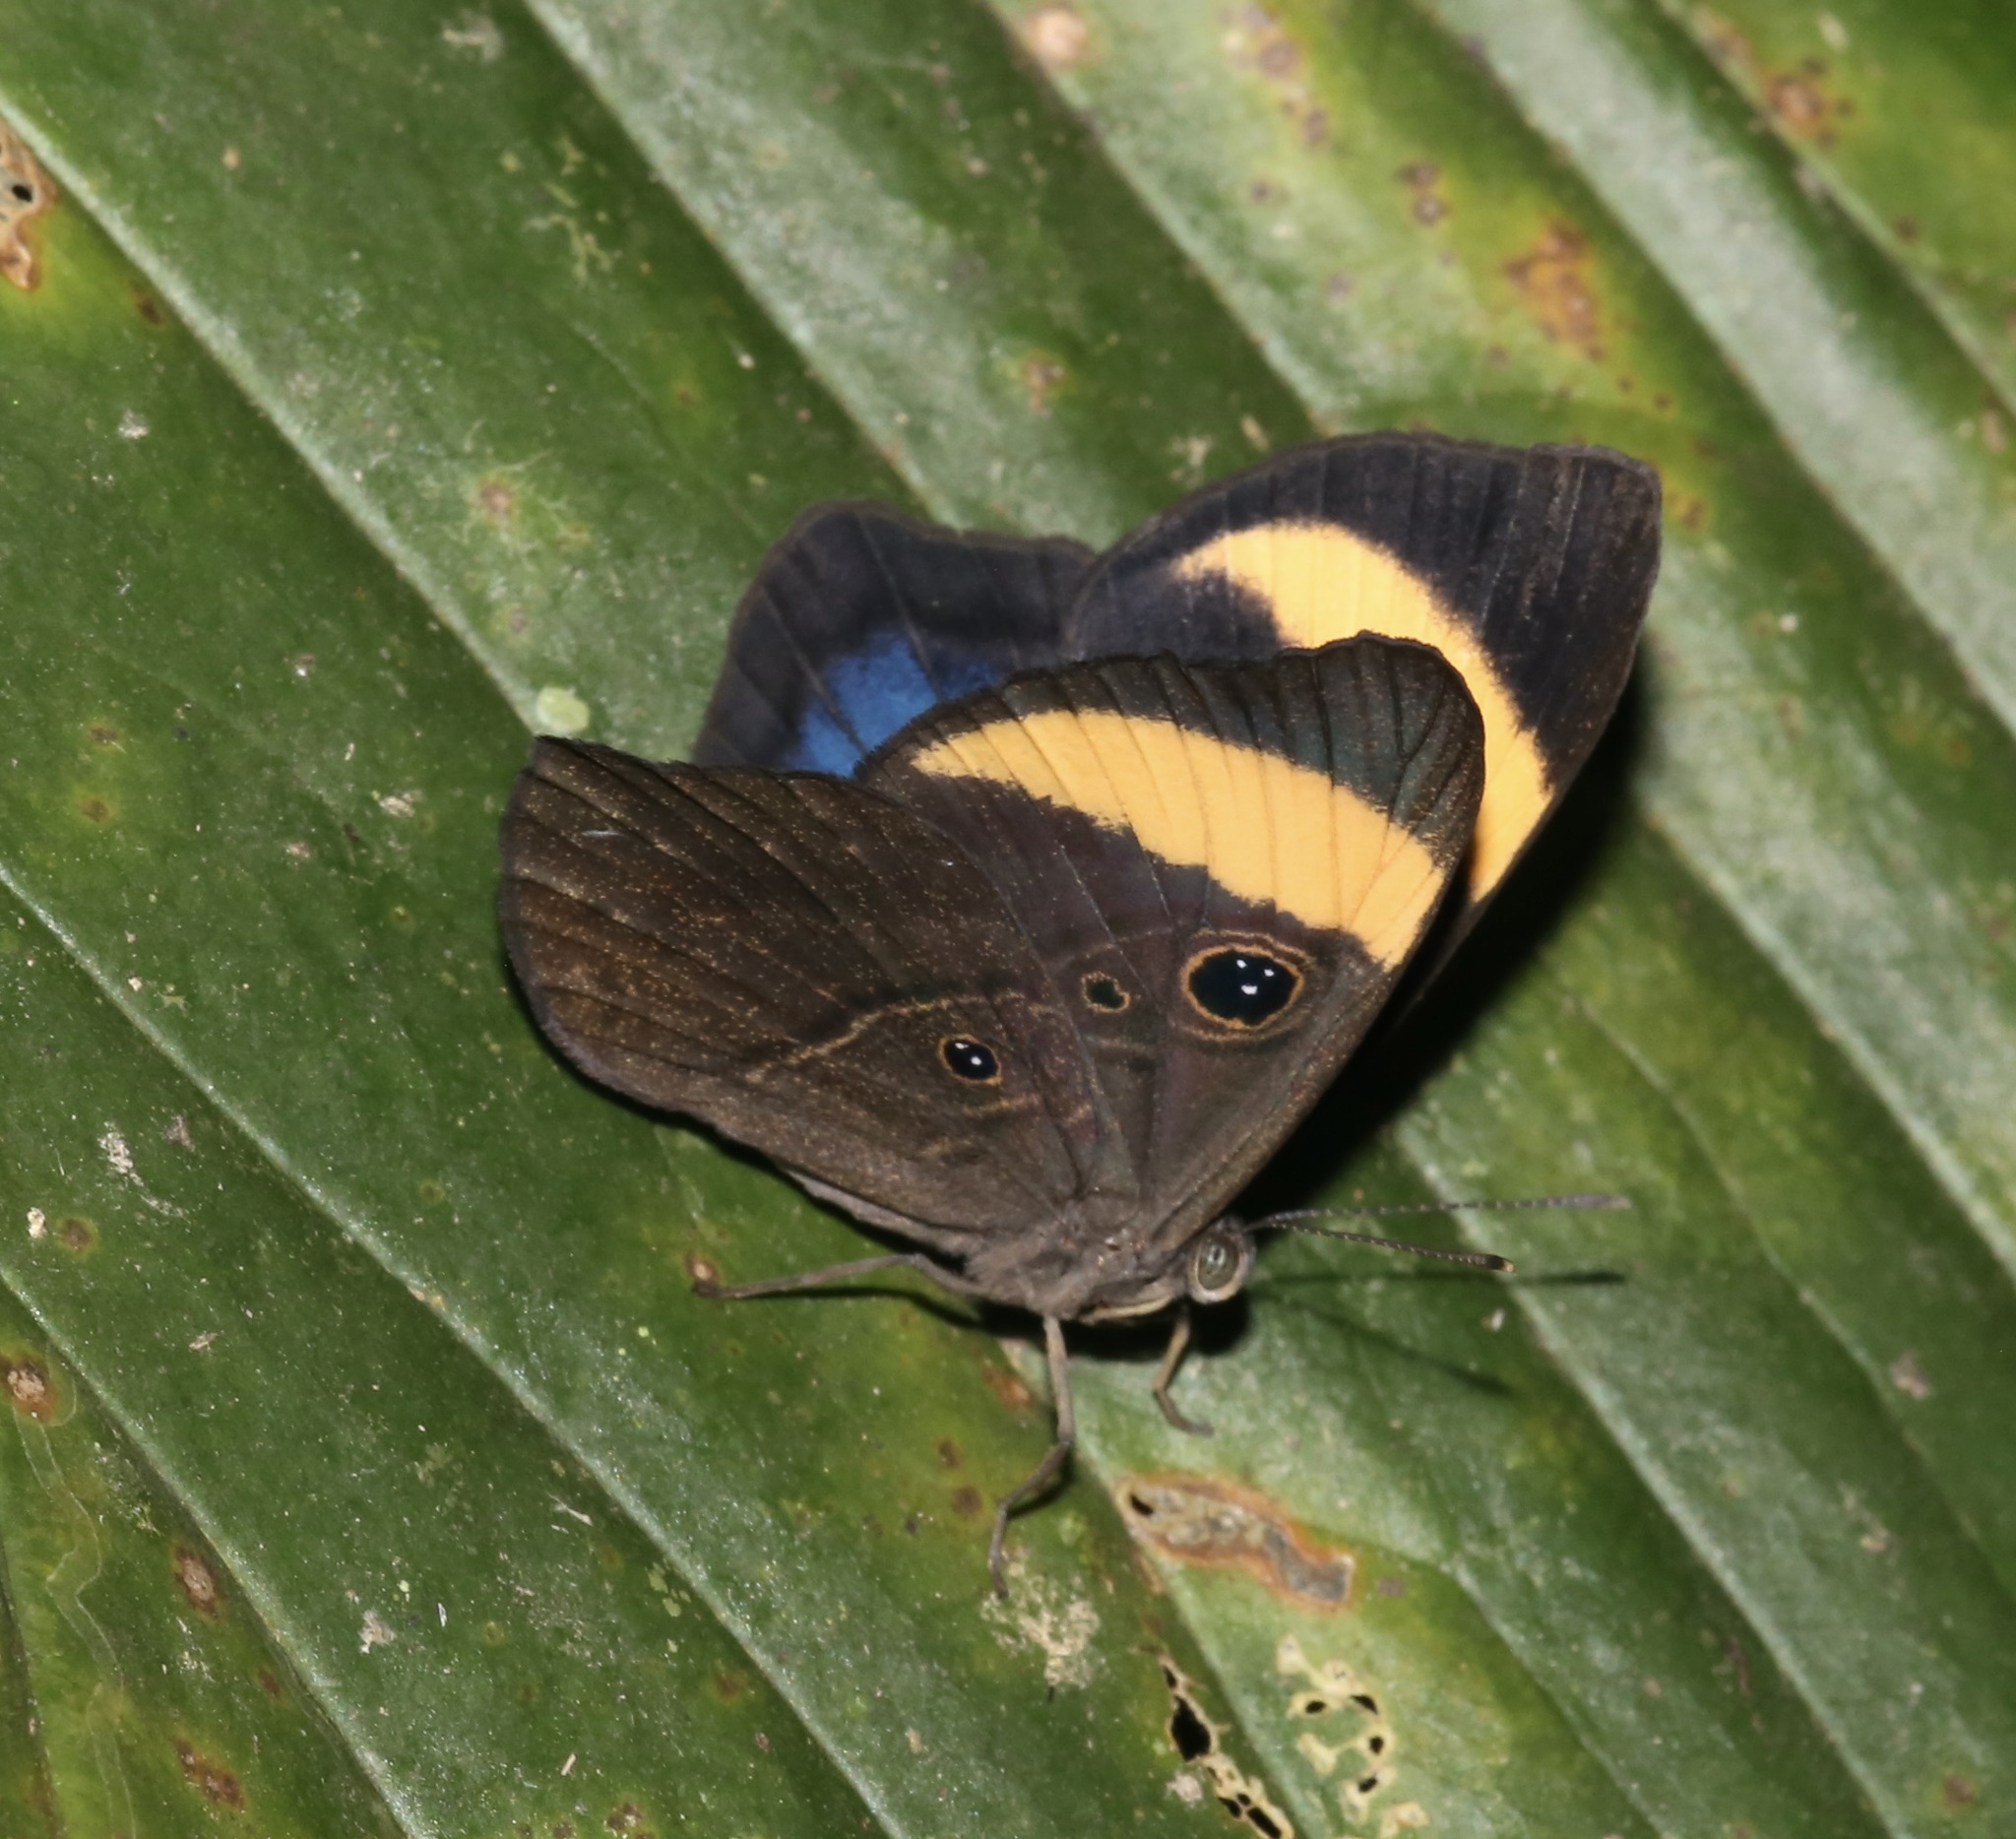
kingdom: Animalia
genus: Mesosemia
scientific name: Mesosemia mevania
